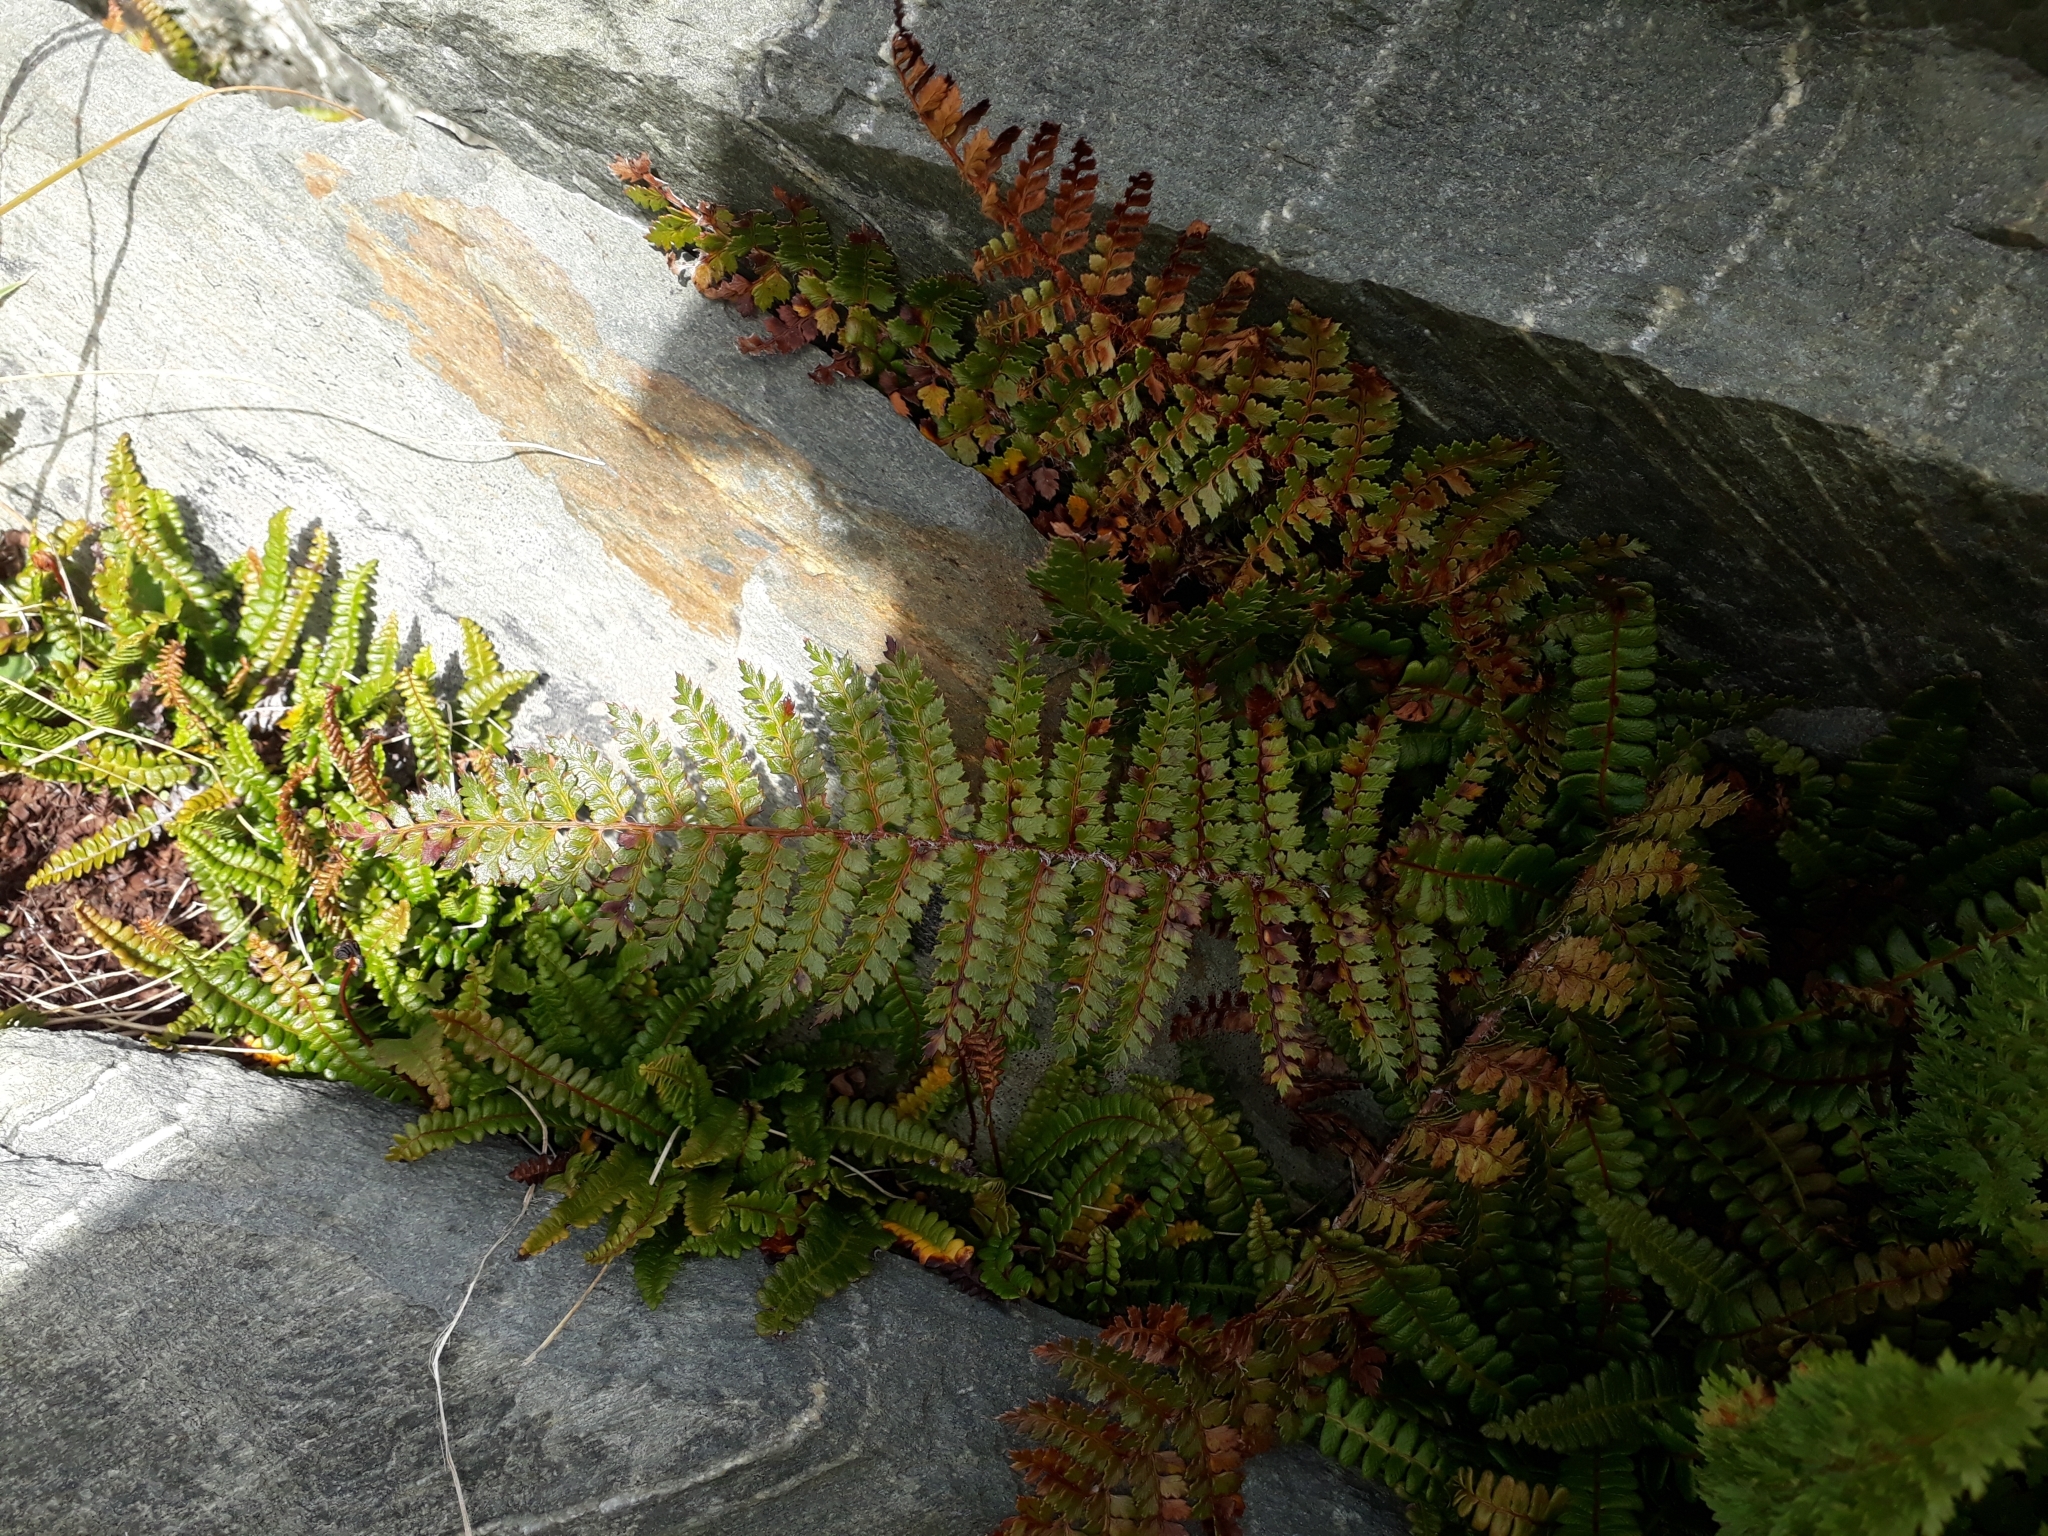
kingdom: Plantae
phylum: Tracheophyta
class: Polypodiopsida
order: Polypodiales
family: Dryopteridaceae
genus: Polystichum
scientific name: Polystichum vestitum
